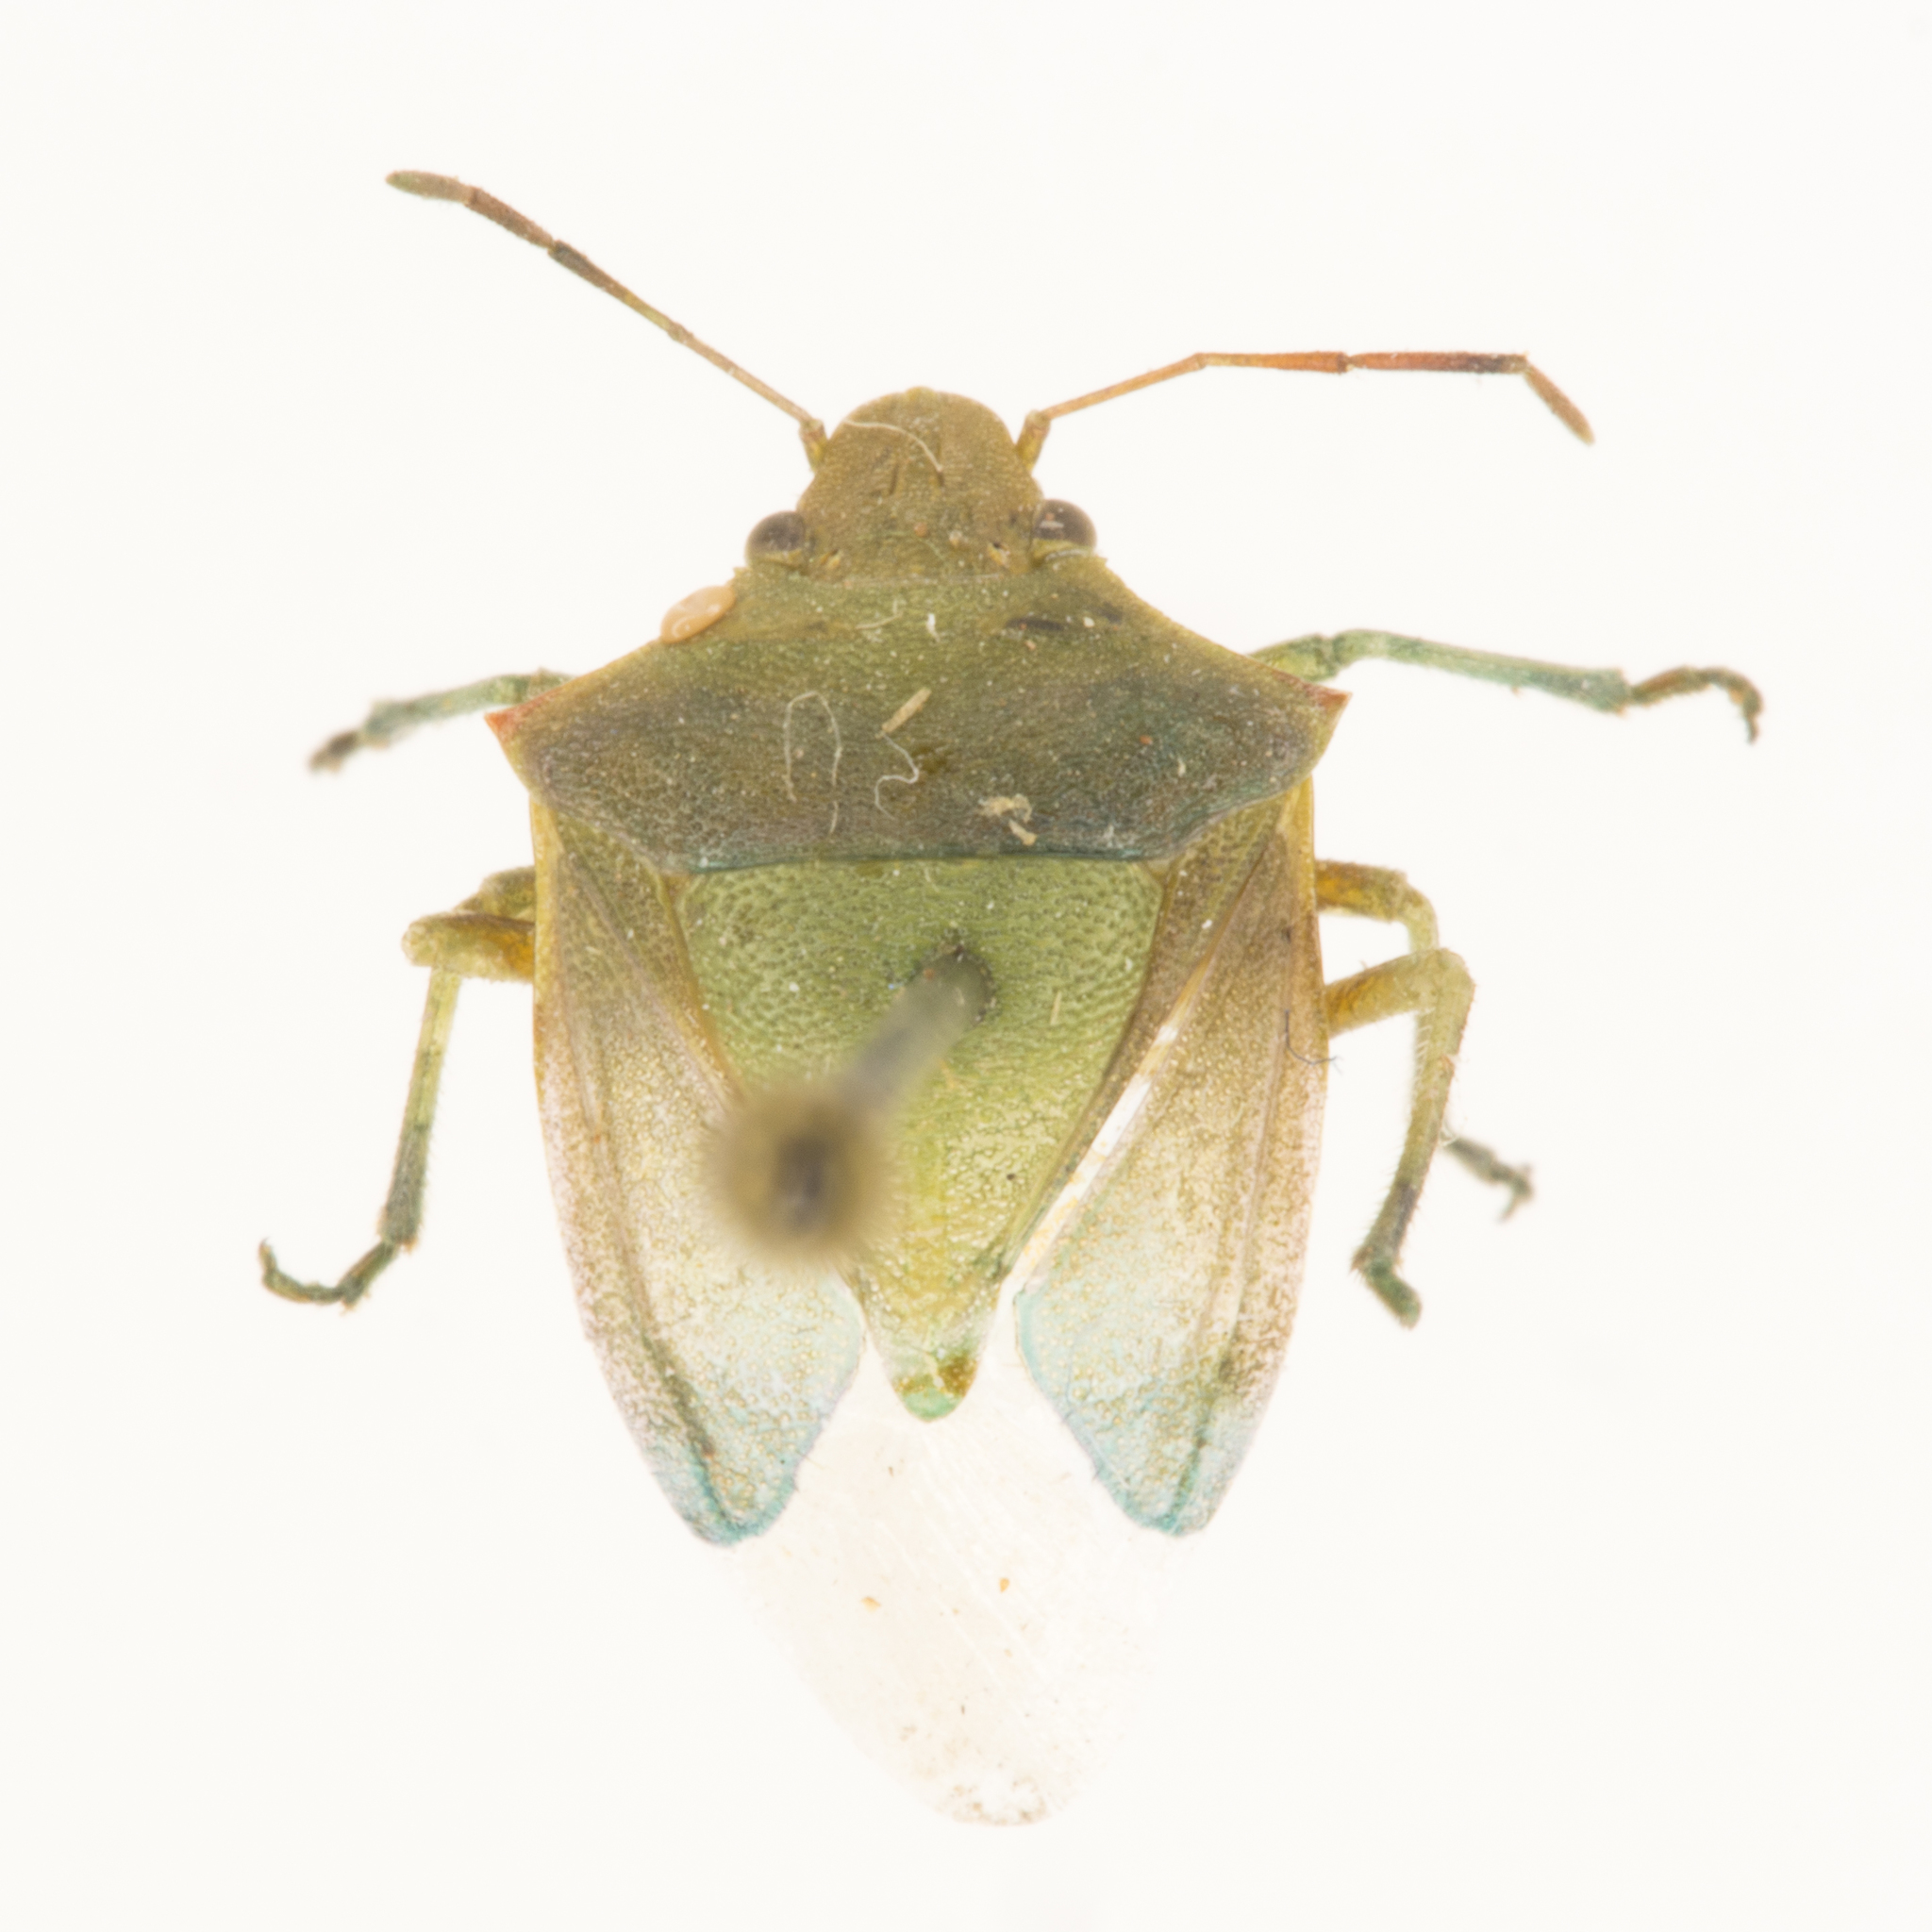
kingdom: Animalia
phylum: Arthropoda
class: Insecta
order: Hemiptera
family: Pentatomidae
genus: Thyanta
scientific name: Thyanta accerra
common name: Stink bug
